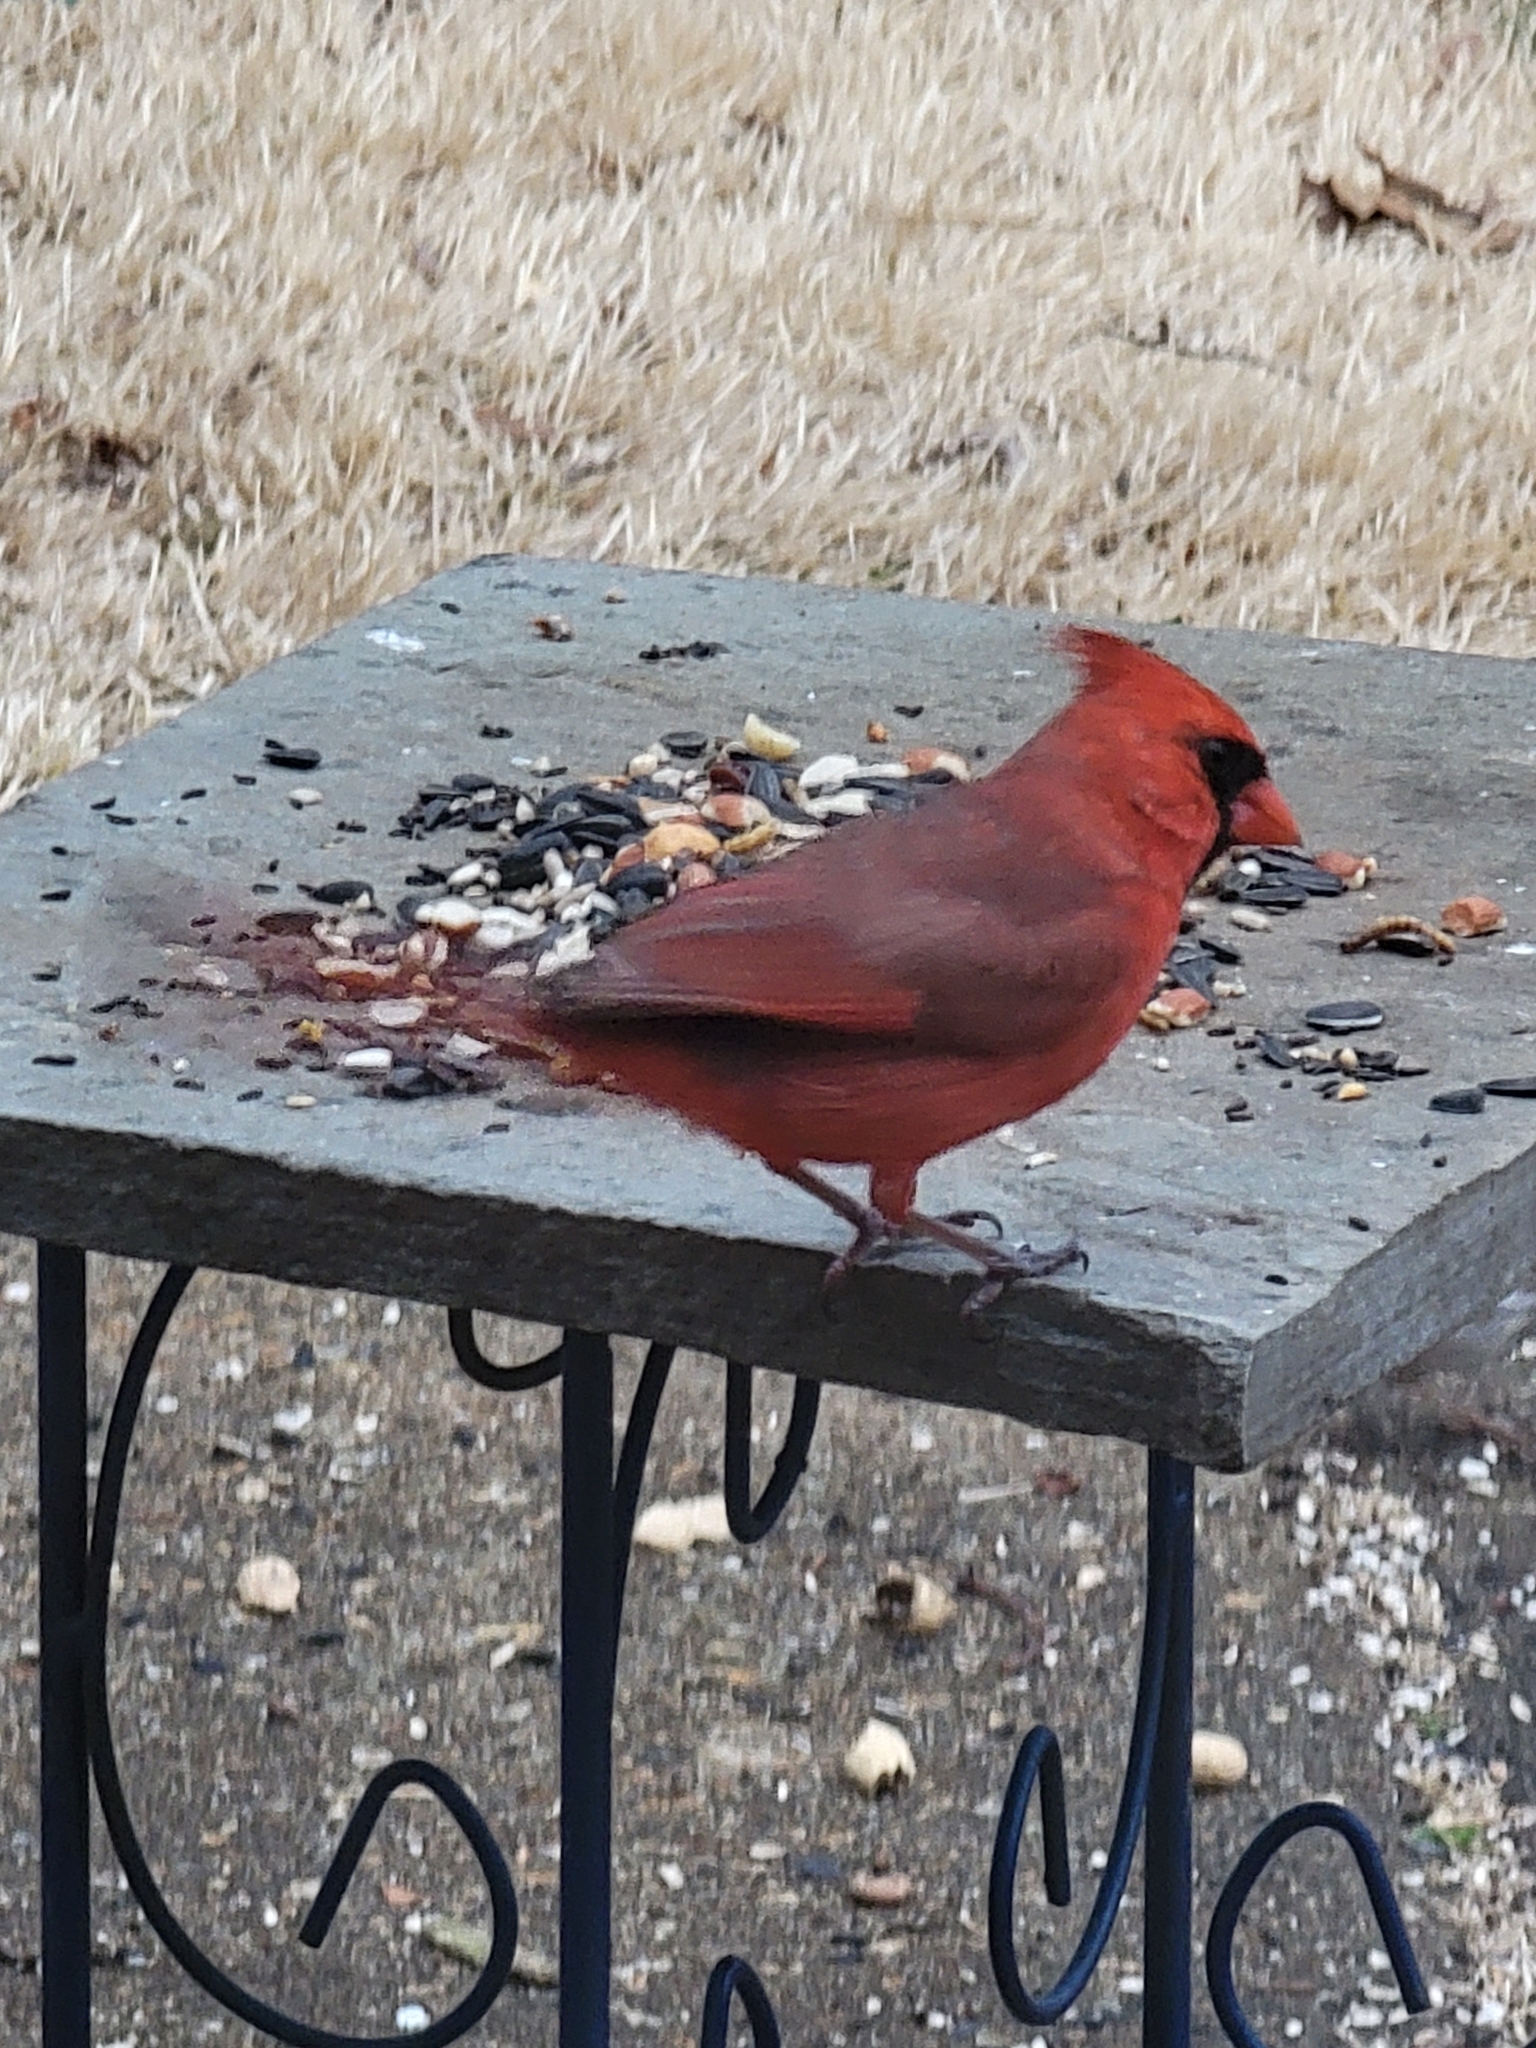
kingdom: Animalia
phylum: Chordata
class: Aves
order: Passeriformes
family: Cardinalidae
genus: Cardinalis
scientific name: Cardinalis cardinalis
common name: Northern cardinal
